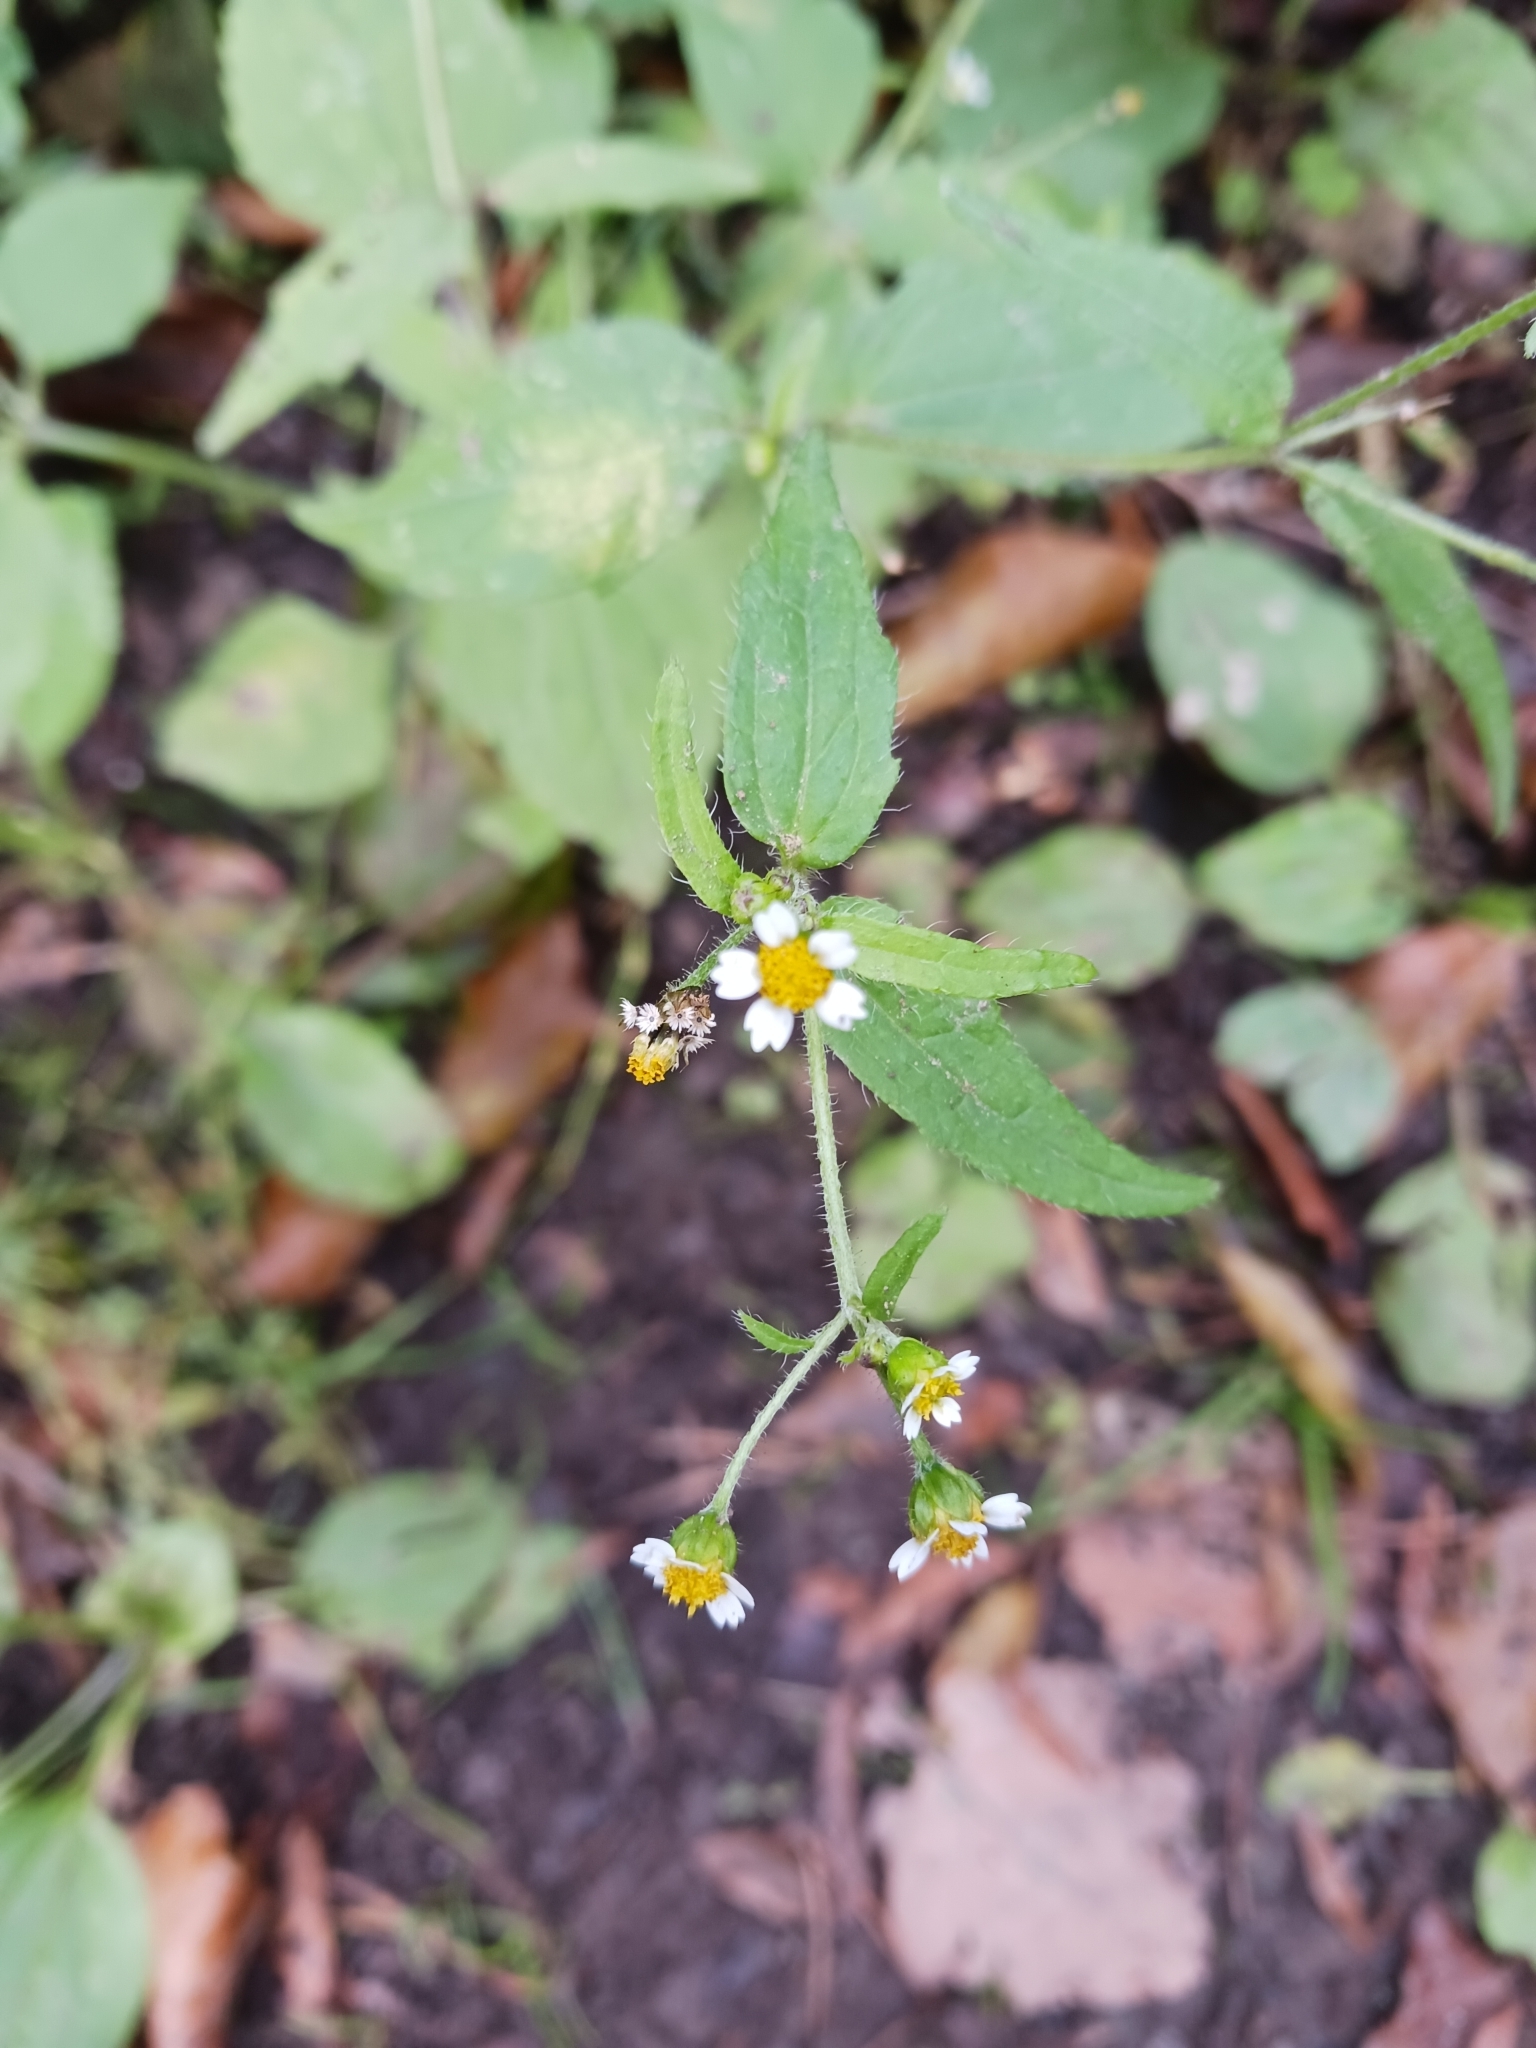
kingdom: Plantae
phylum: Tracheophyta
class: Magnoliopsida
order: Asterales
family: Asteraceae
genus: Galinsoga
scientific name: Galinsoga quadriradiata
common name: Shaggy soldier
